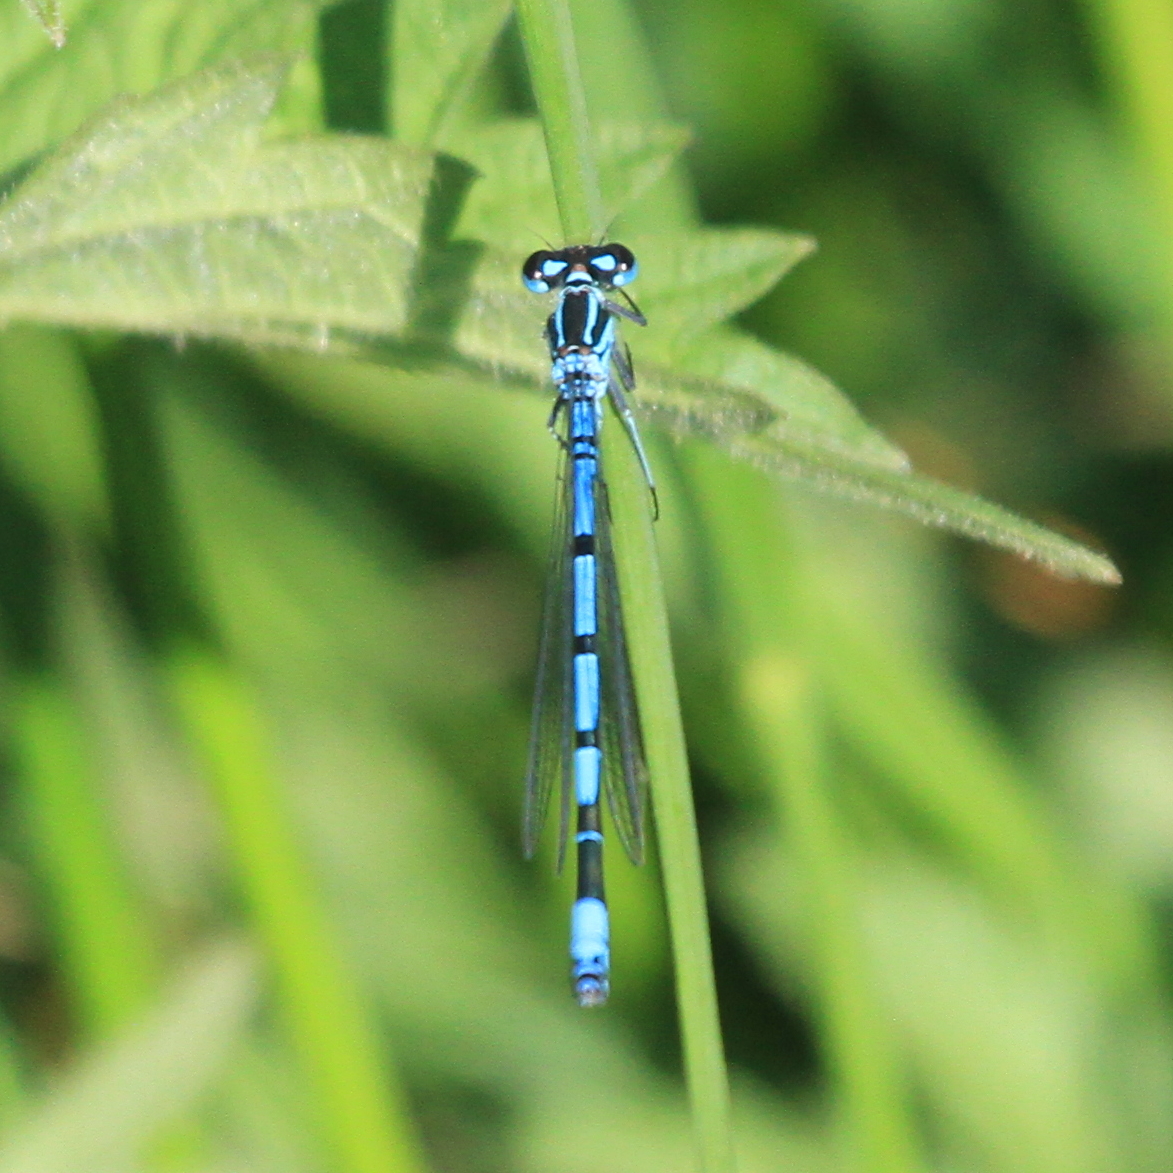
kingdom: Animalia
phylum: Arthropoda
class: Insecta
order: Odonata
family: Coenagrionidae
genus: Coenagrion
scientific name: Coenagrion puella
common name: Azure damselfly
